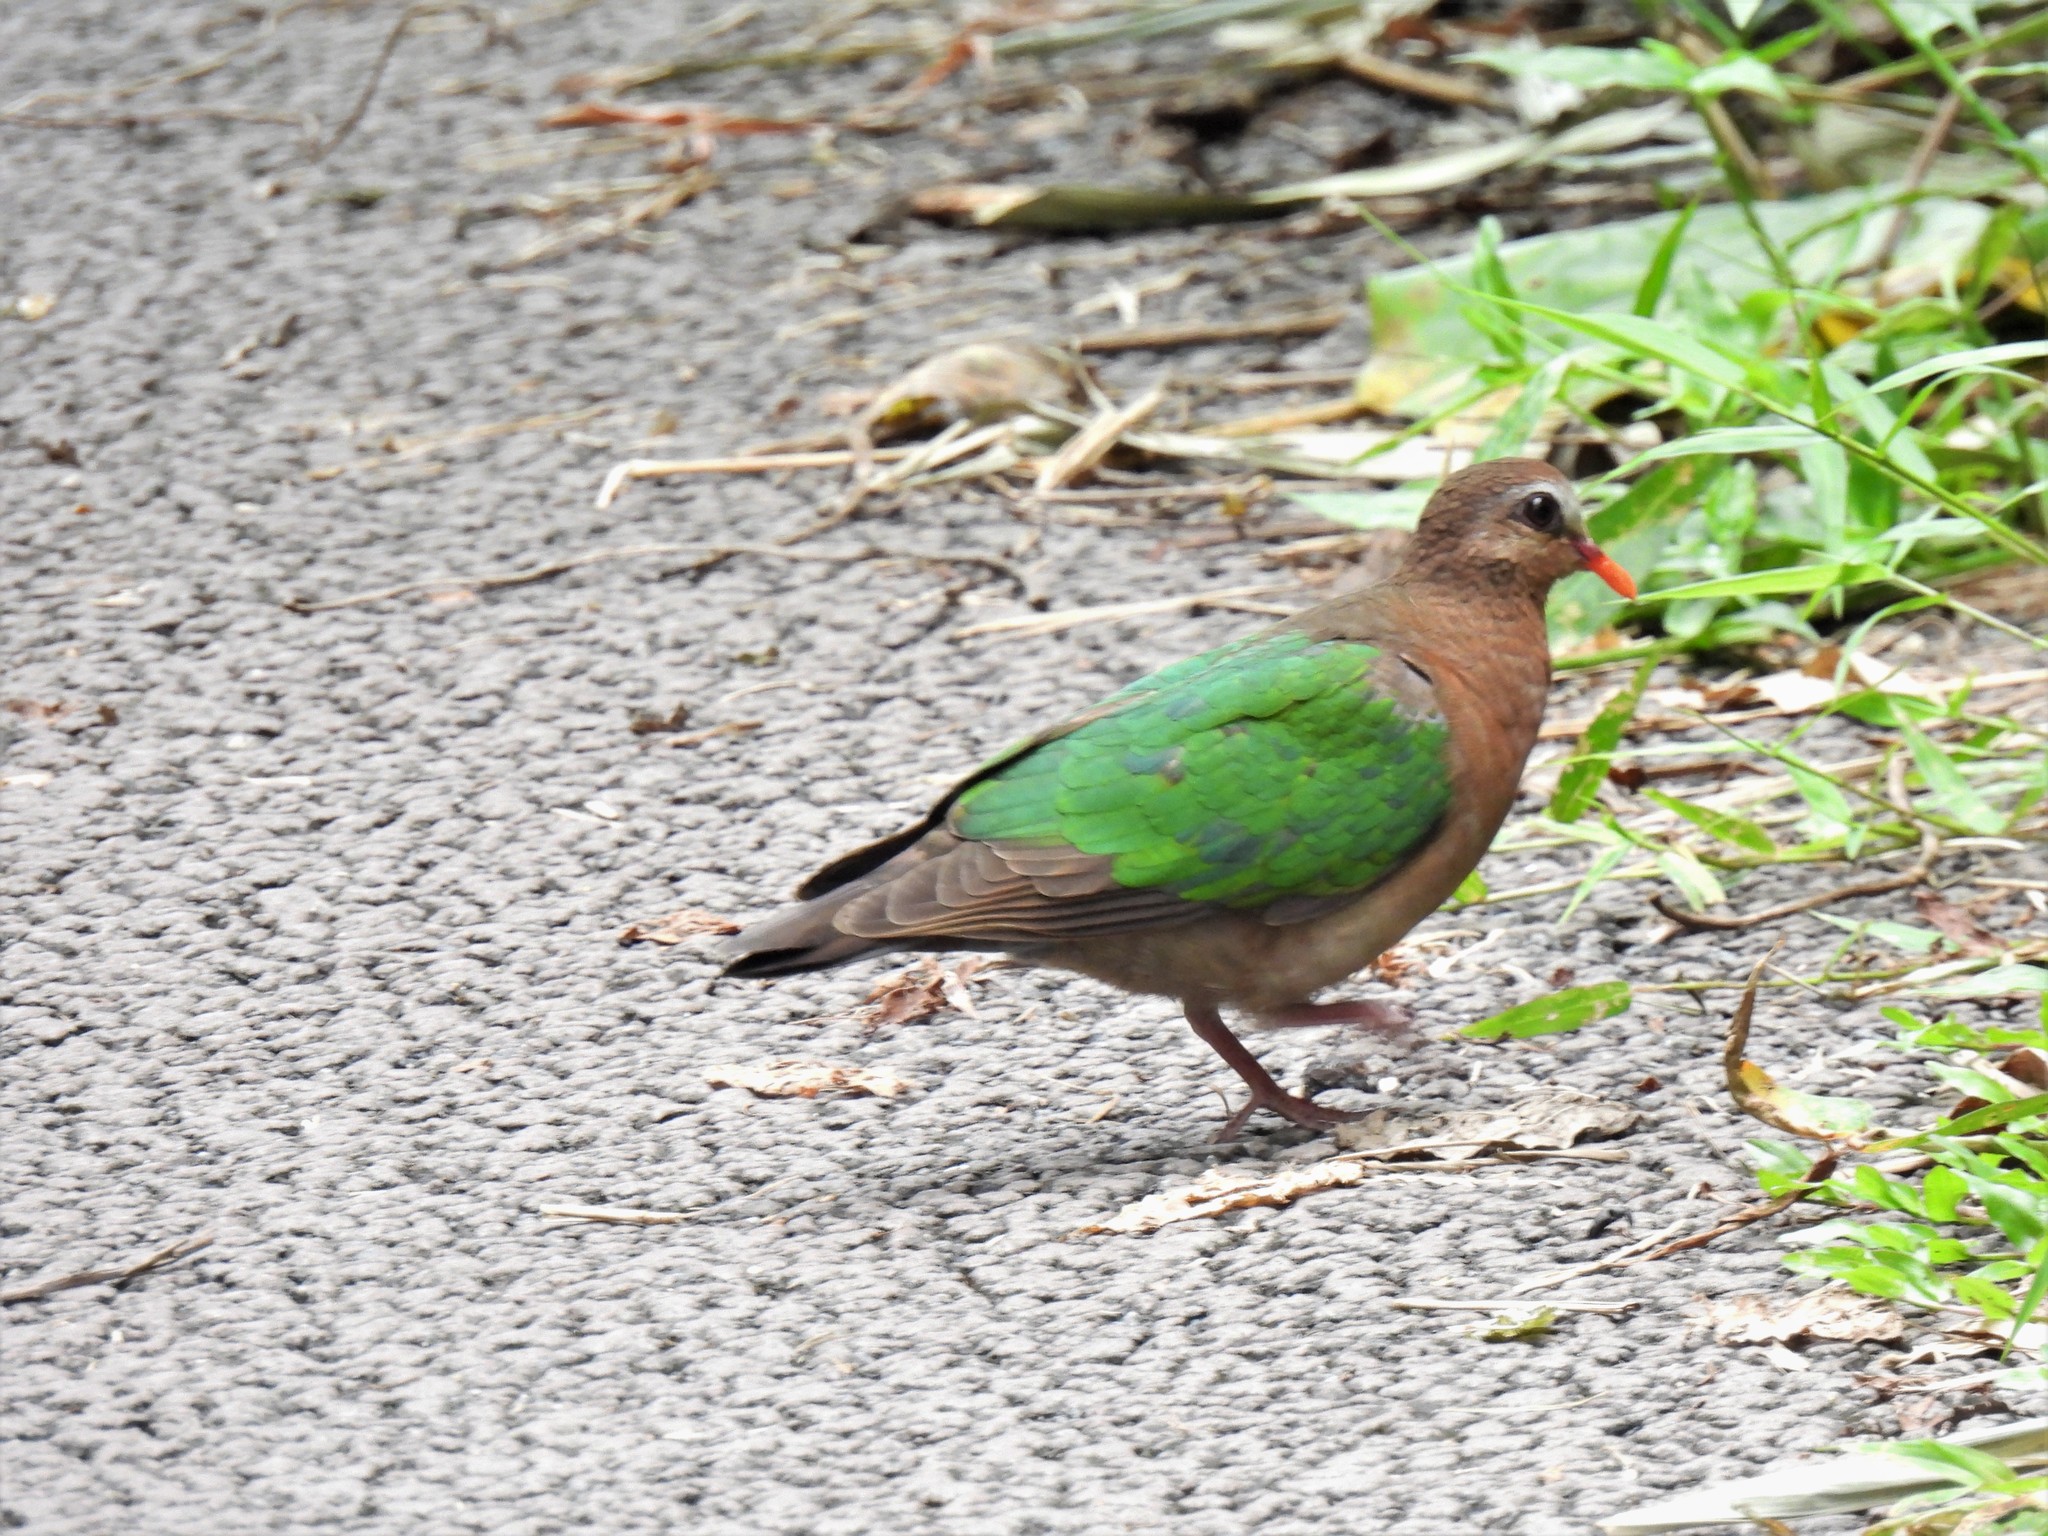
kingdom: Animalia
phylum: Chordata
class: Aves
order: Columbiformes
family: Columbidae
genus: Chalcophaps
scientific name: Chalcophaps indica
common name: Common emerald dove
